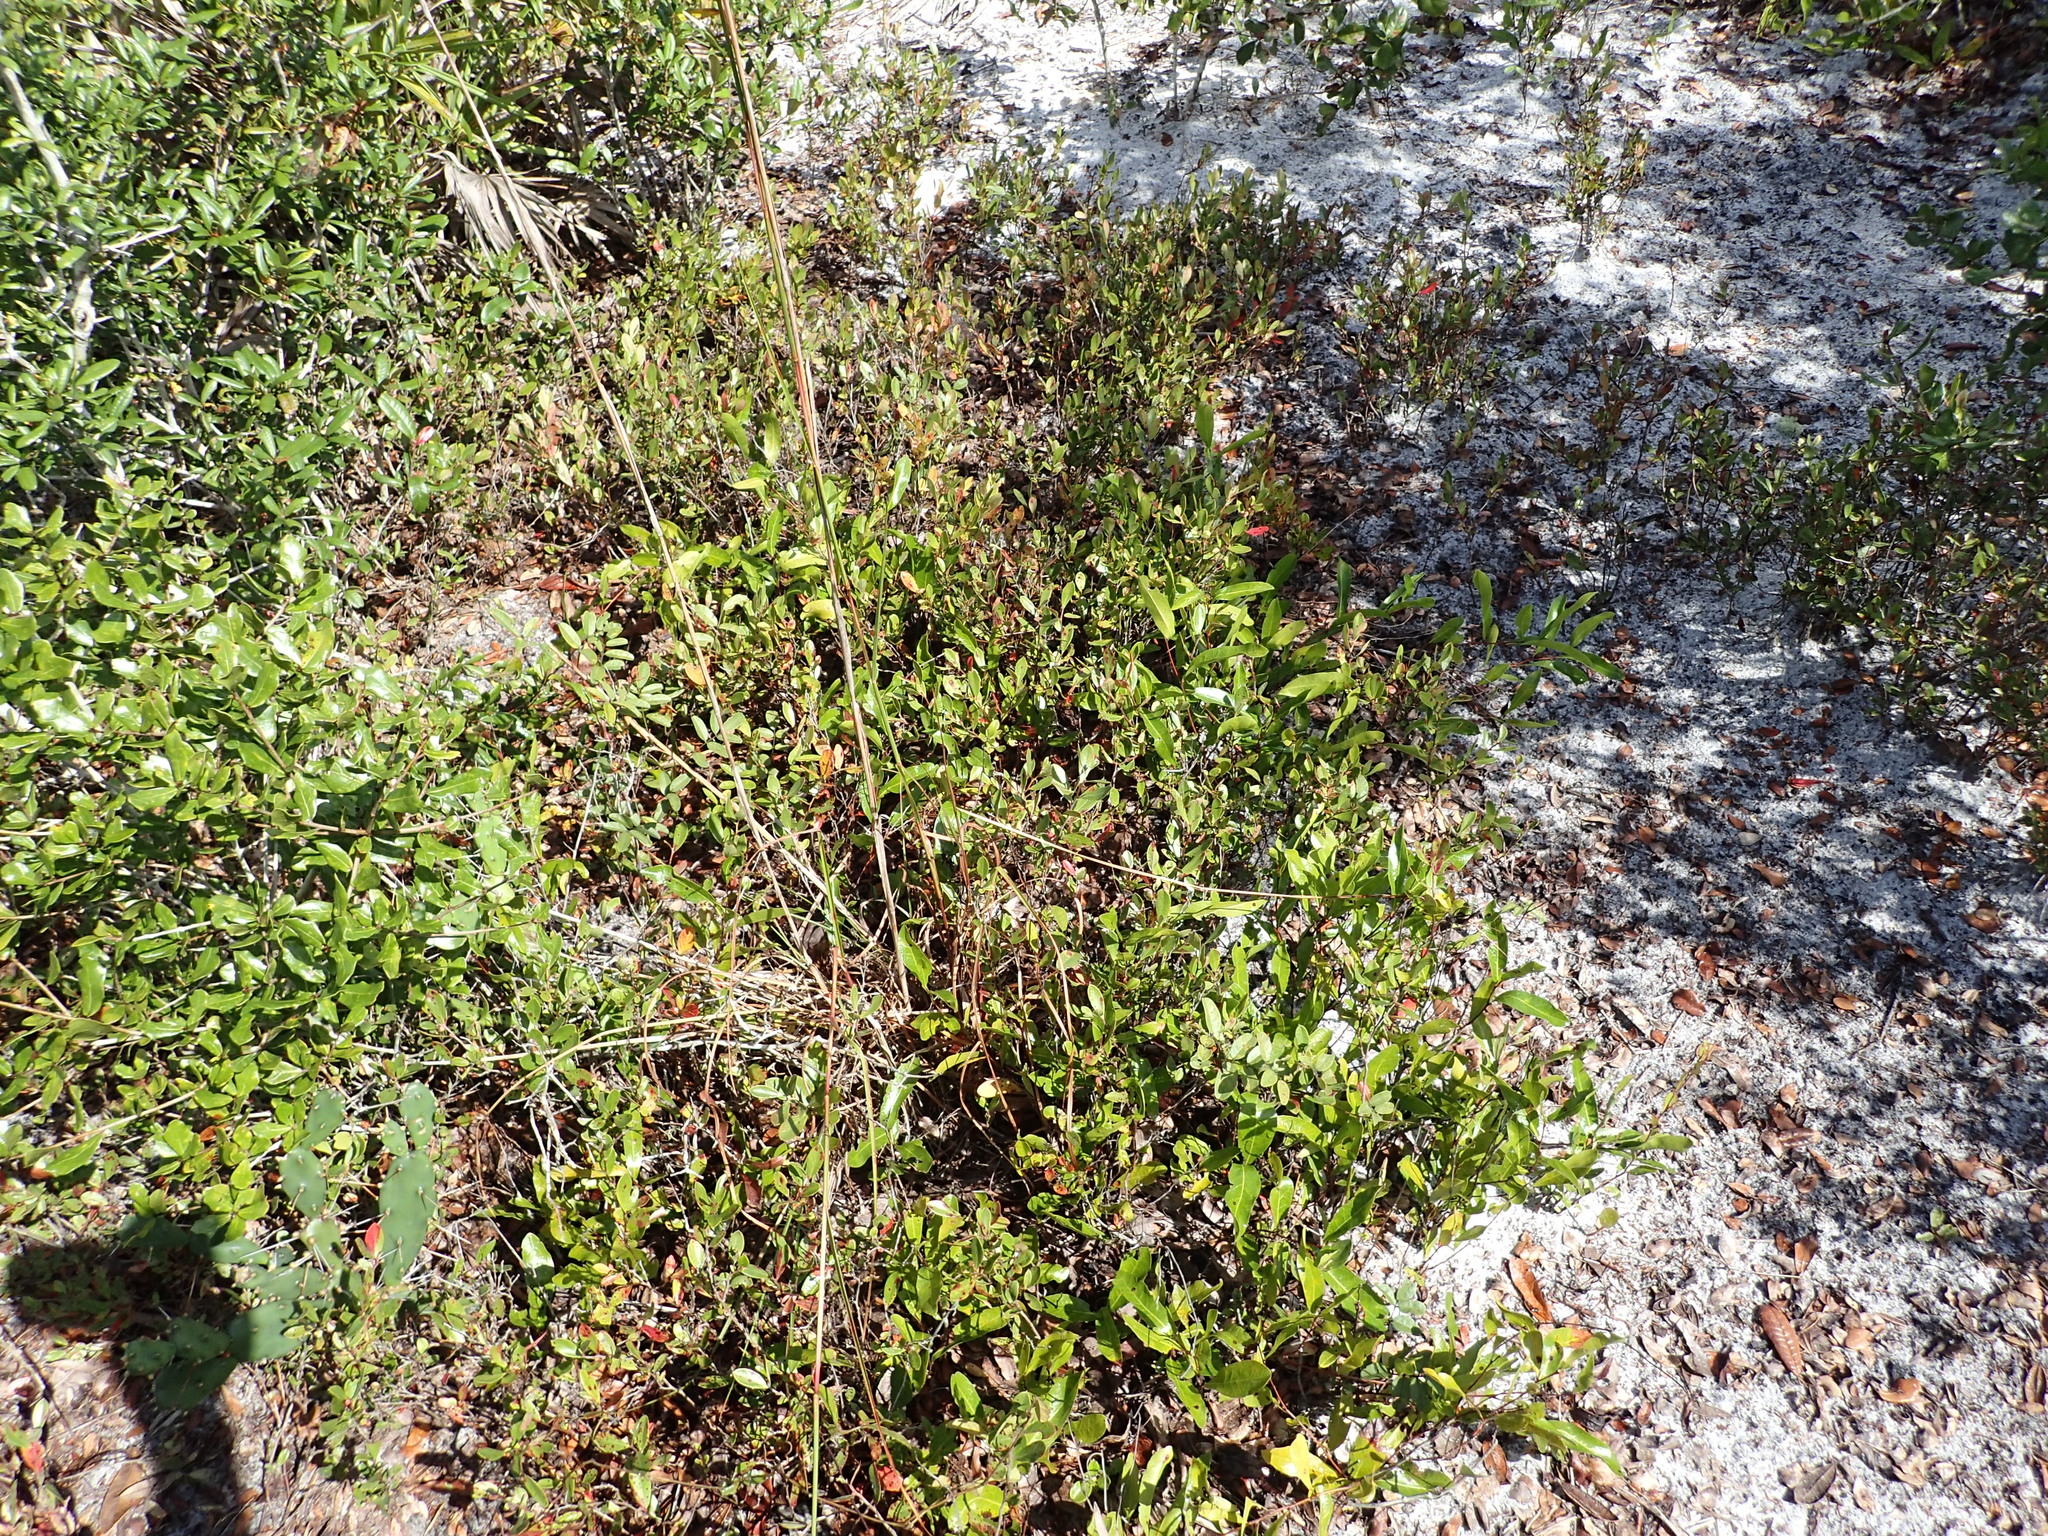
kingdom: Plantae
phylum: Tracheophyta
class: Magnoliopsida
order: Malpighiales
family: Chrysobalanaceae
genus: Geobalanus
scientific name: Geobalanus oblongifolius
